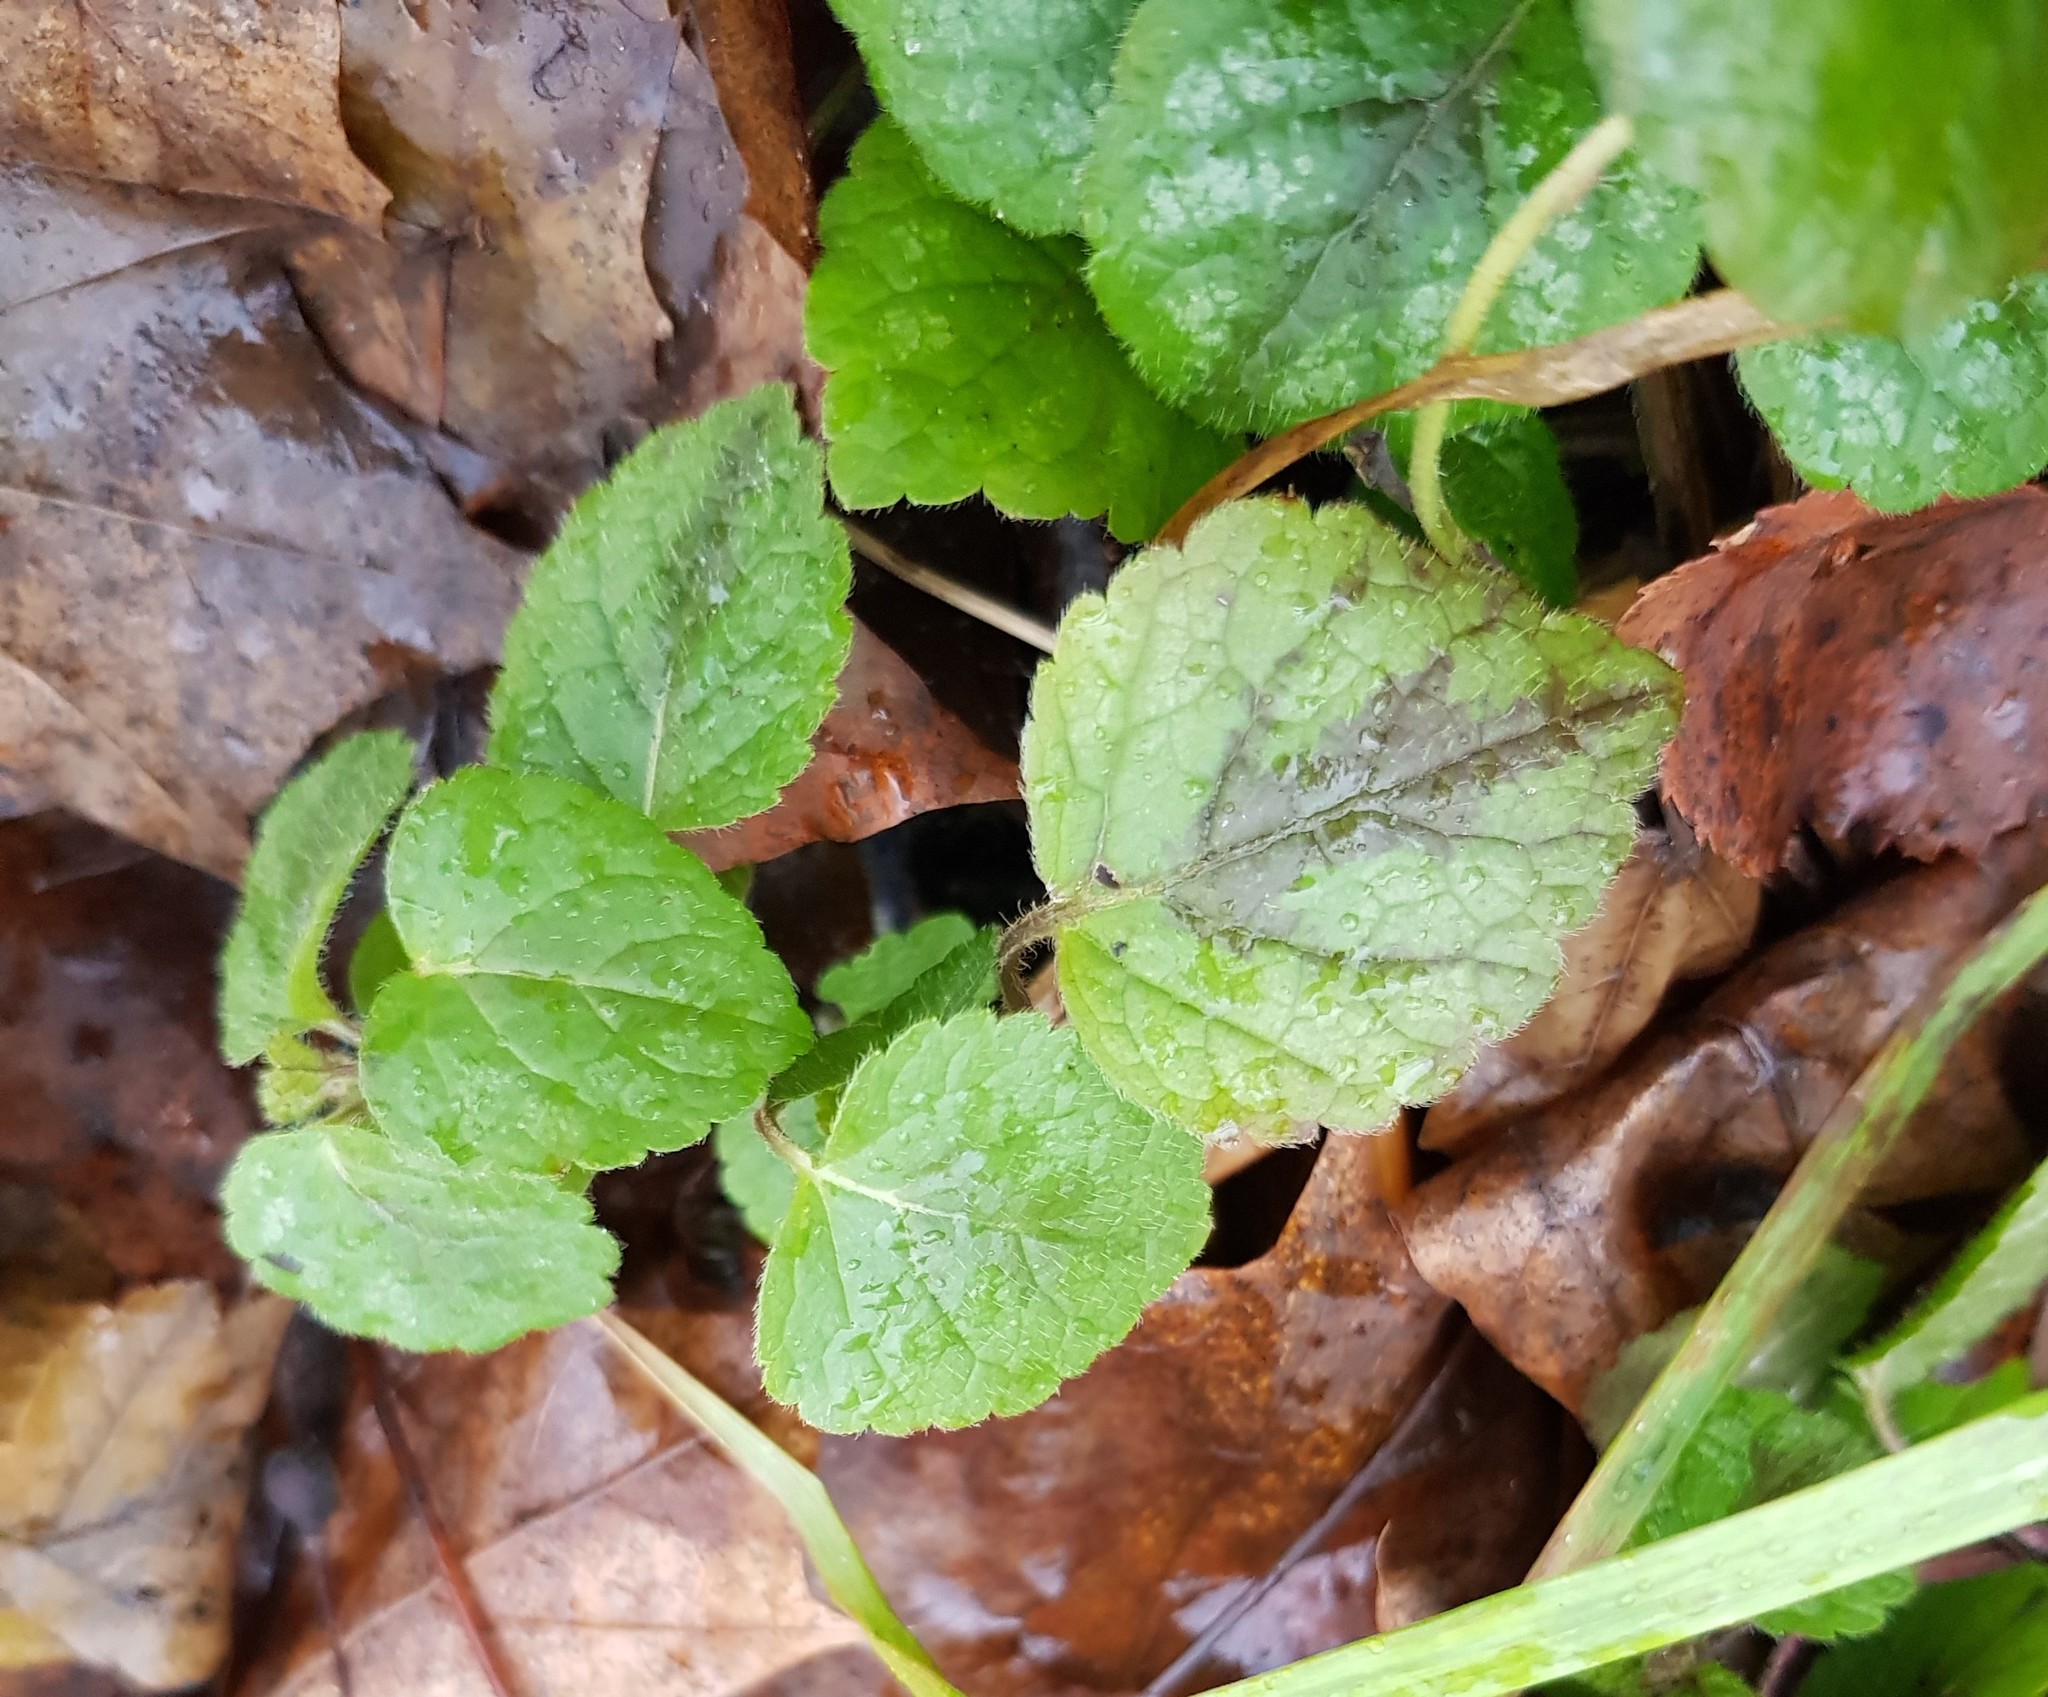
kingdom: Plantae
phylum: Tracheophyta
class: Magnoliopsida
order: Lamiales
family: Lamiaceae
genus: Lamium
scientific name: Lamium galeobdolon
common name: Yellow archangel
